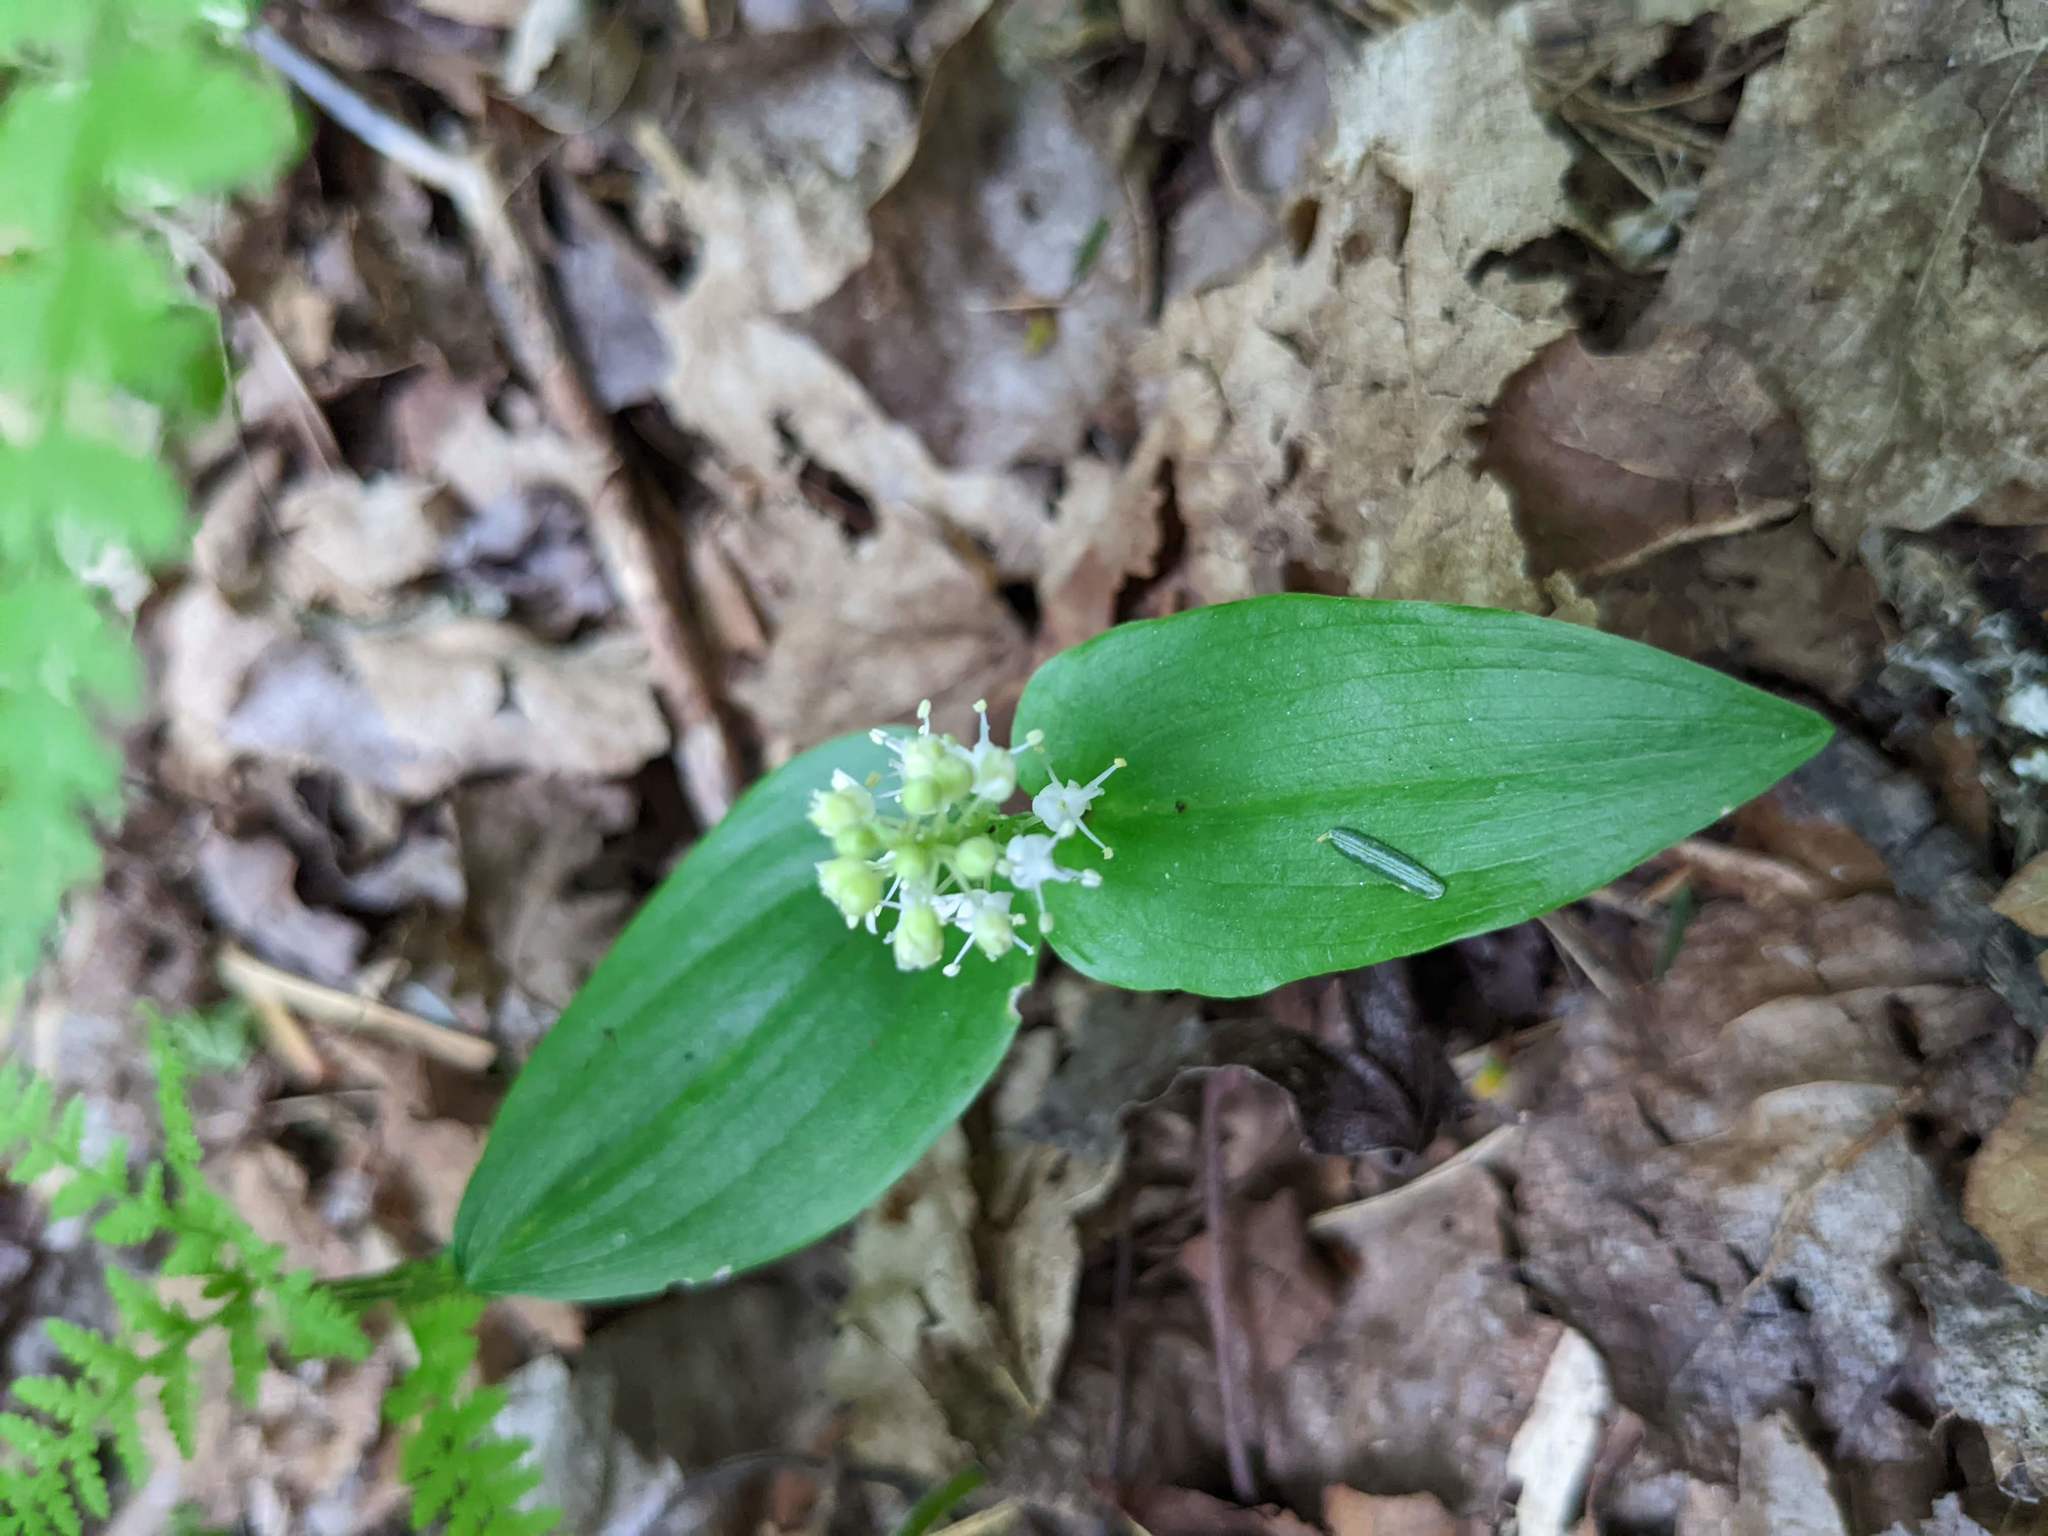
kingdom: Plantae
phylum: Tracheophyta
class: Liliopsida
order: Asparagales
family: Asparagaceae
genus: Maianthemum
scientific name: Maianthemum canadense
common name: False lily-of-the-valley
